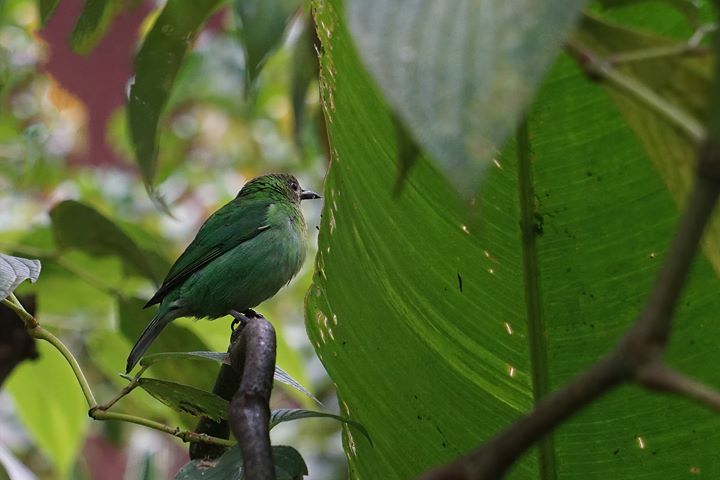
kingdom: Animalia
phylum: Chordata
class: Aves
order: Passeriformes
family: Thraupidae
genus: Chlorophanes
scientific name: Chlorophanes spiza
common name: Green honeycreeper
